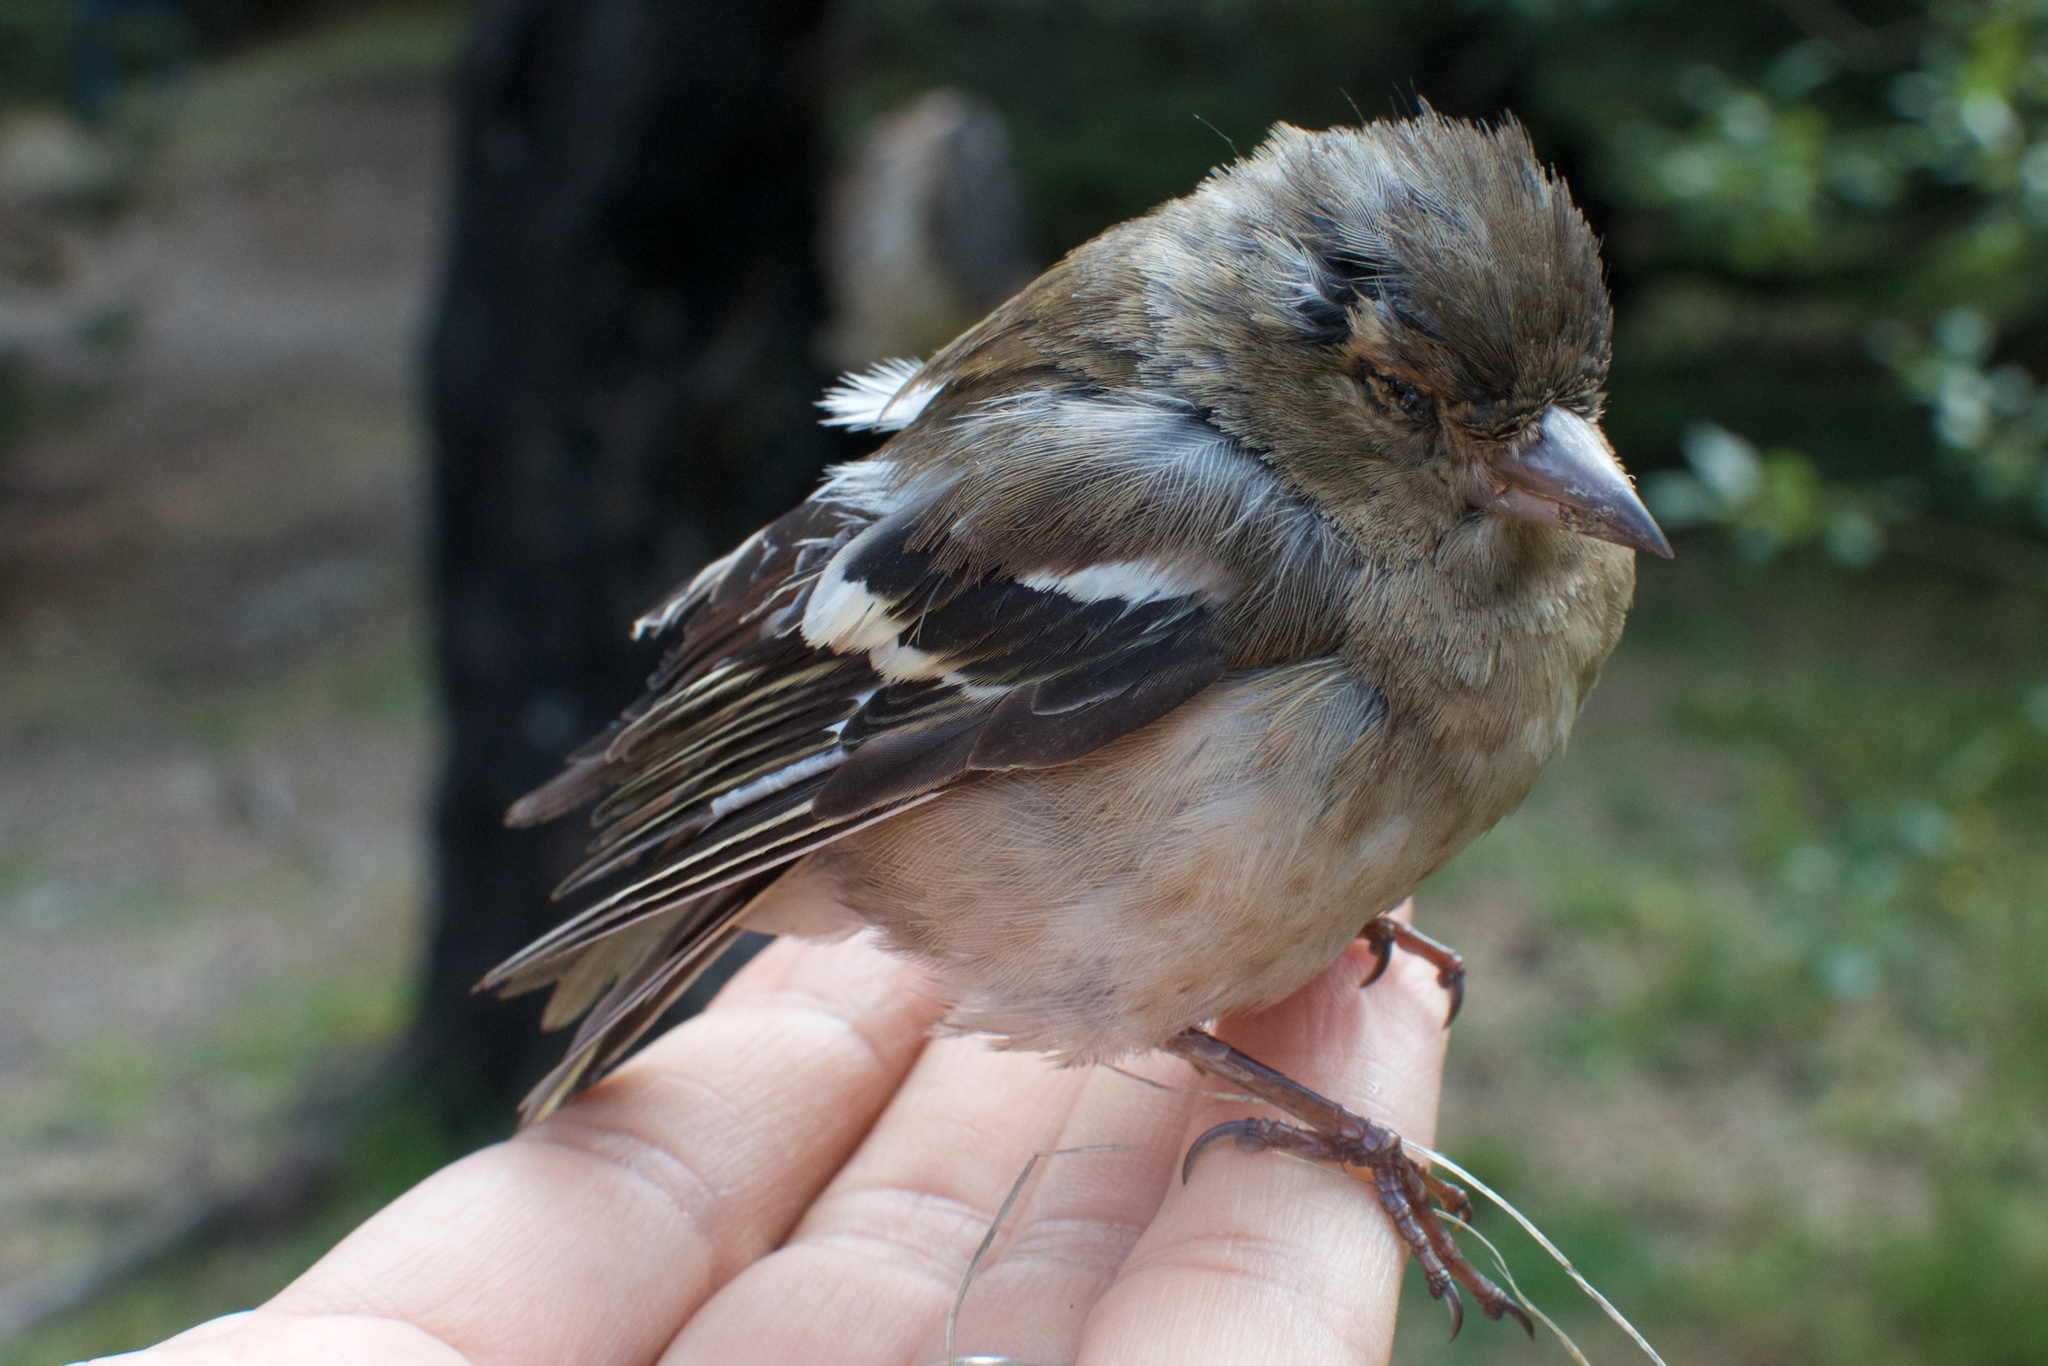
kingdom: Animalia
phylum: Chordata
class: Aves
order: Passeriformes
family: Fringillidae
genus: Fringilla
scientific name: Fringilla coelebs
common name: Common chaffinch
